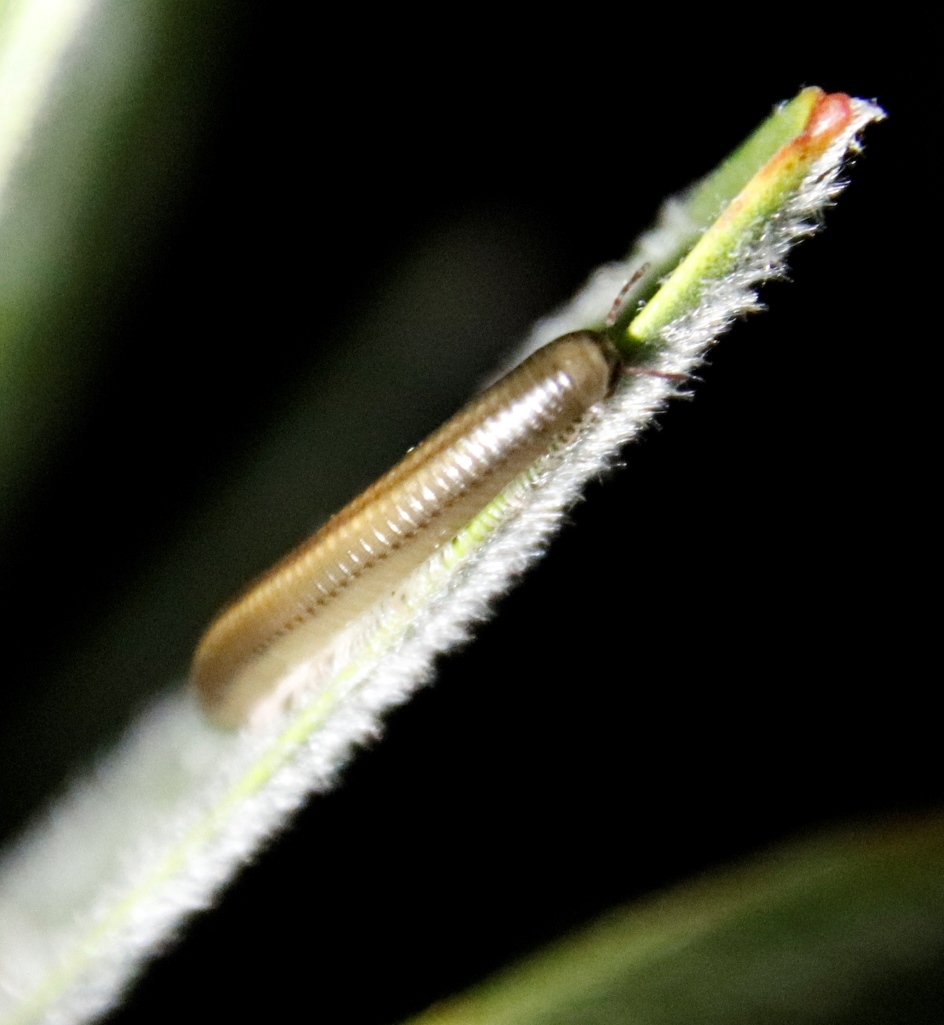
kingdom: Animalia
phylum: Arthropoda
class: Diplopoda
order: Julida
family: Julidae
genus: Ommatoiulus
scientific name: Ommatoiulus moreleti
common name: Portuguese millipede
